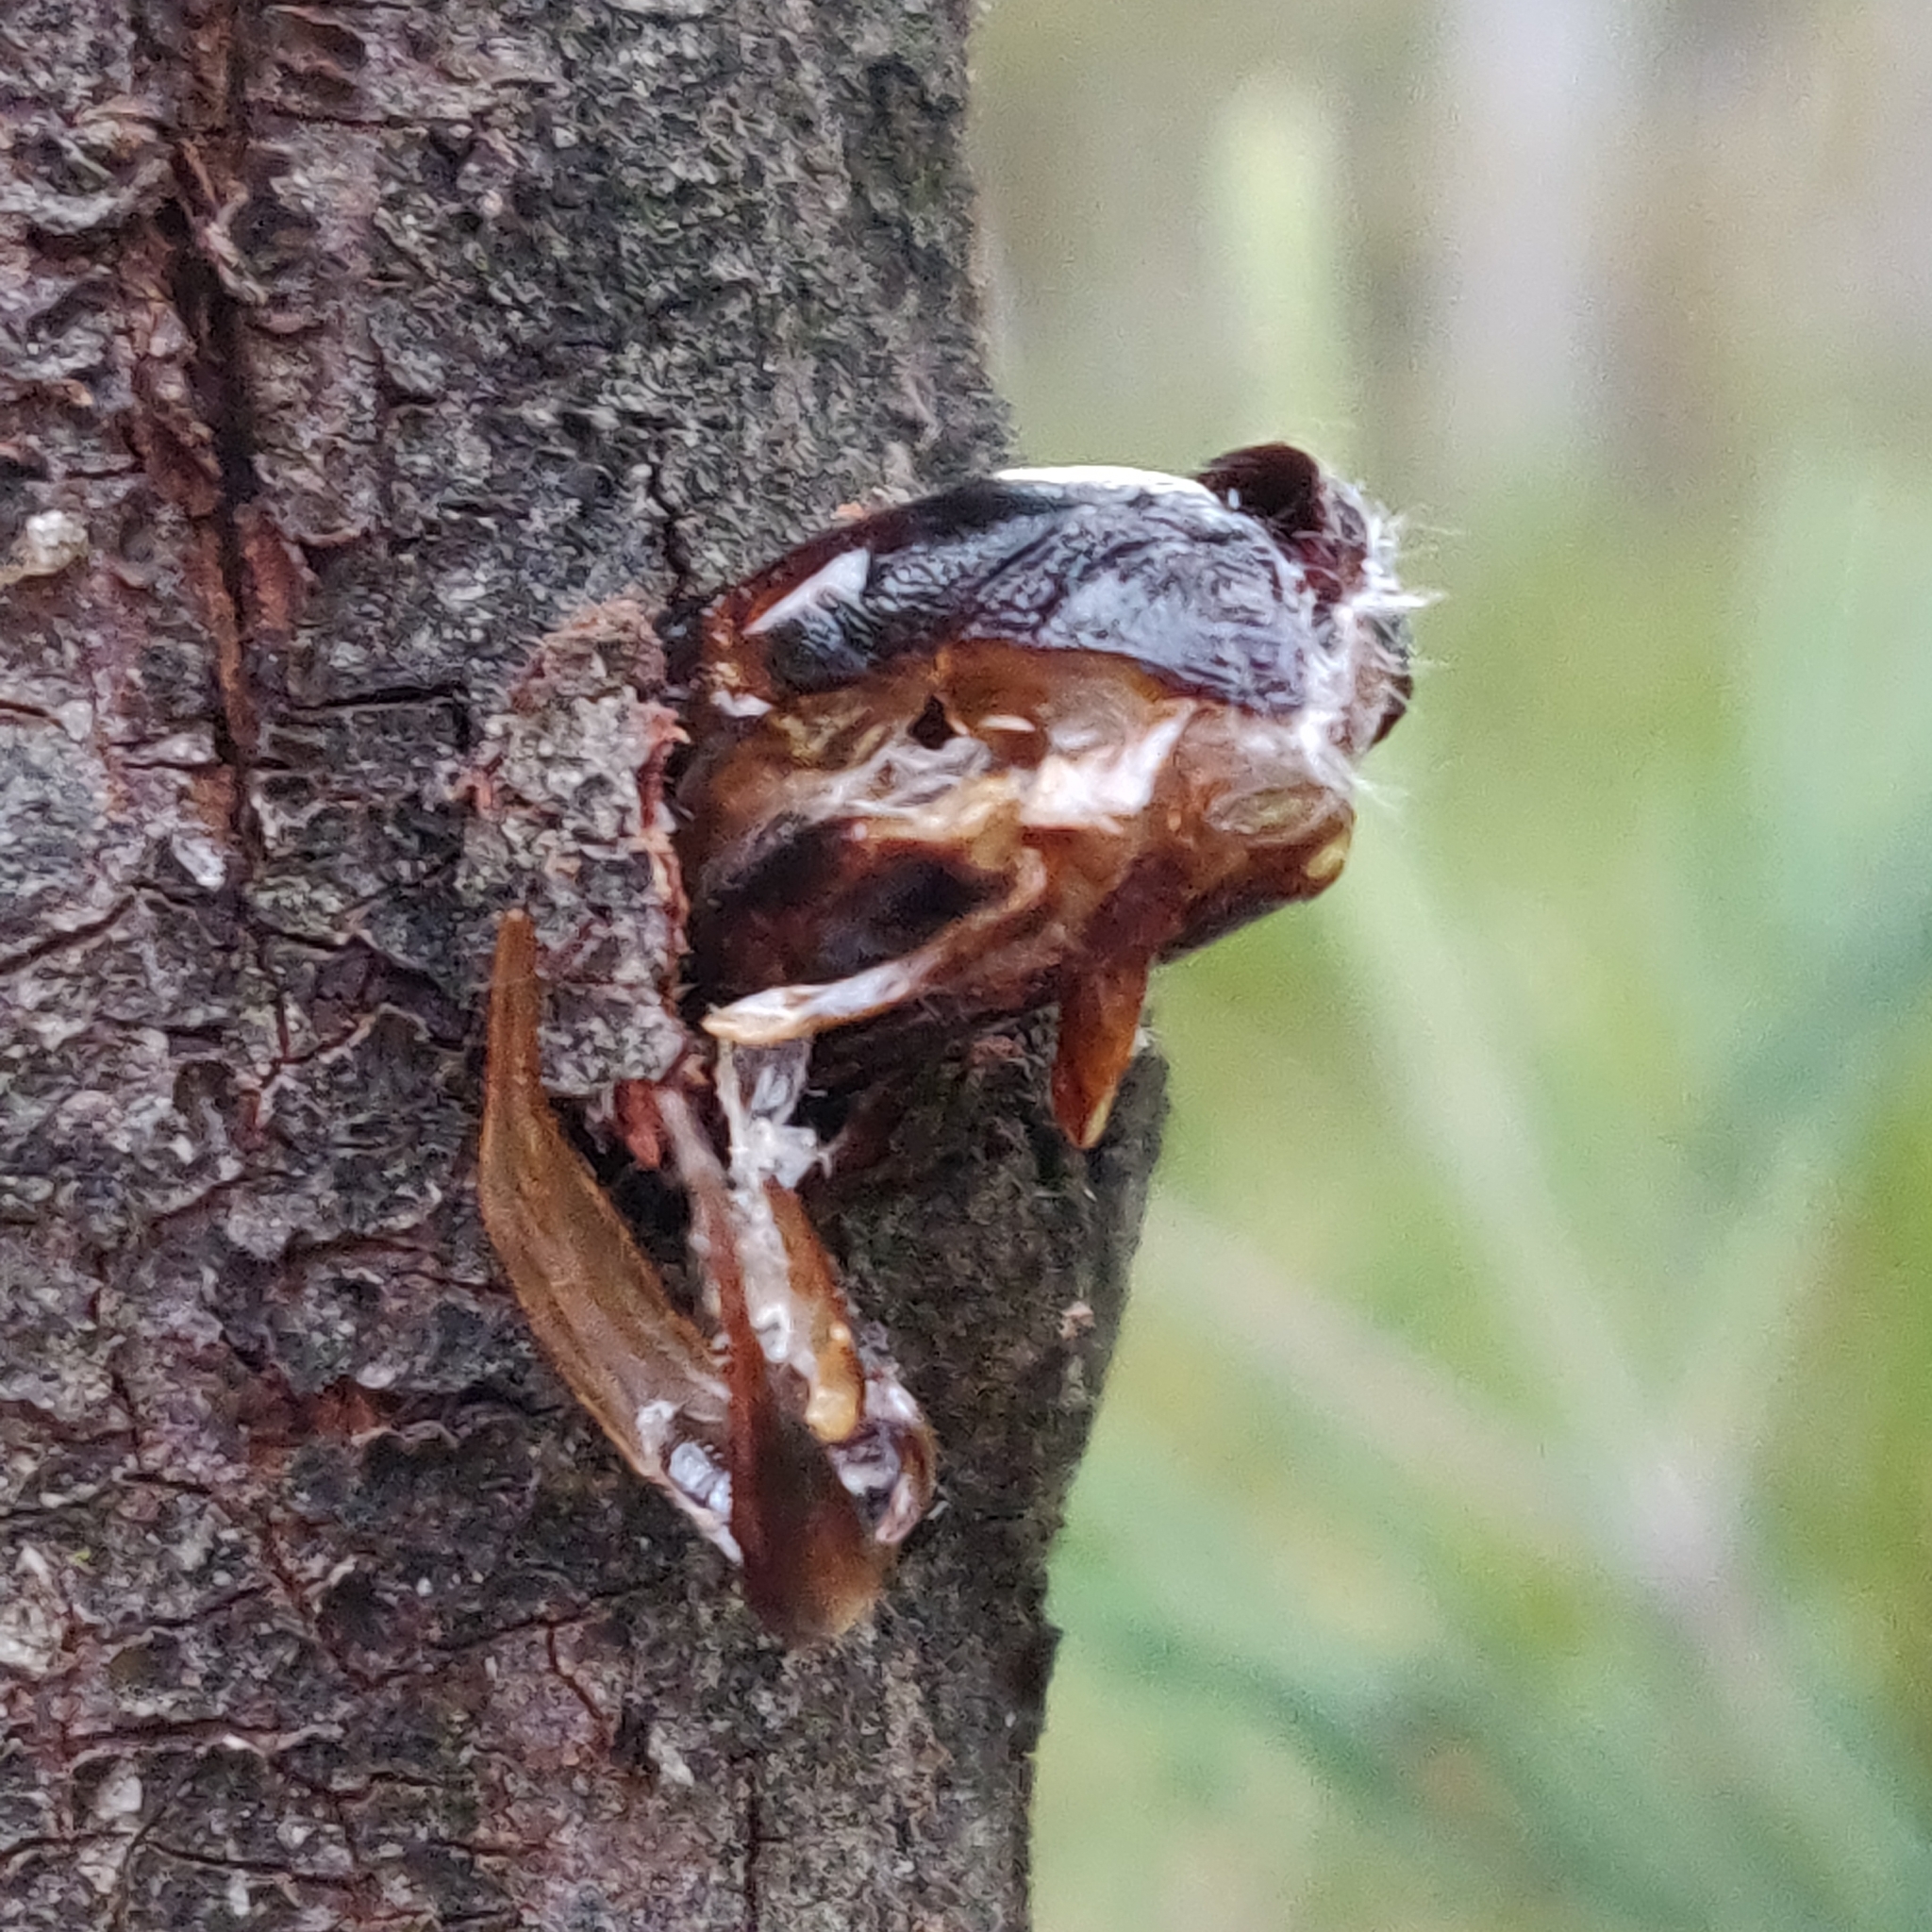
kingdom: Animalia
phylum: Arthropoda
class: Insecta
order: Lepidoptera
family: Cossidae
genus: Endoxyla
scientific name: Endoxyla liturata
